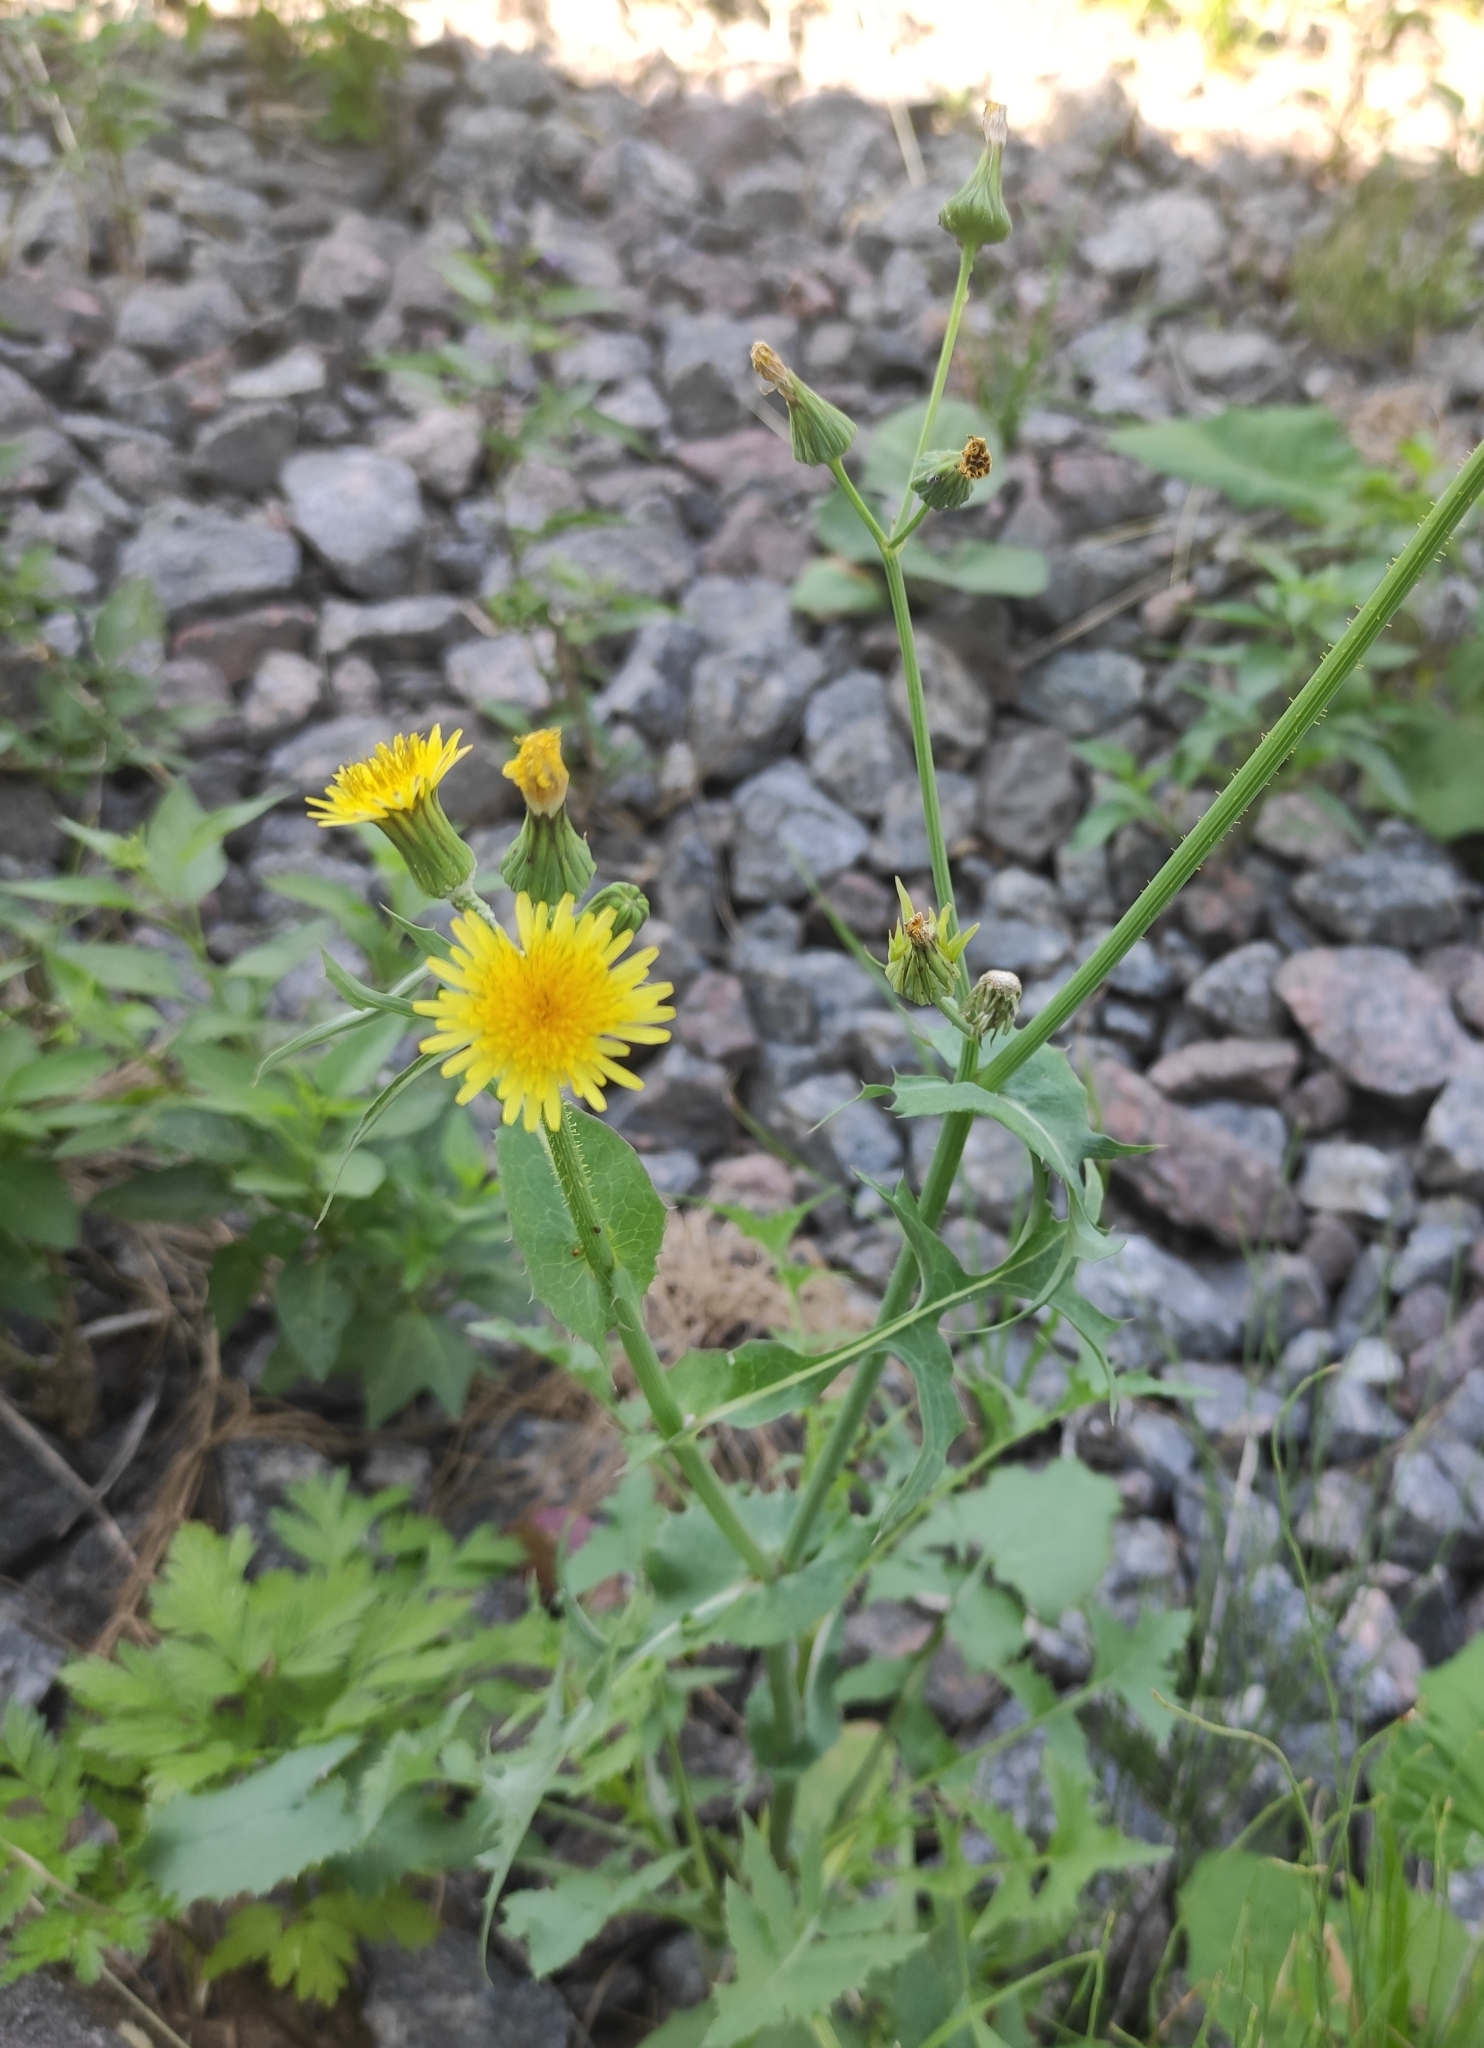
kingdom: Plantae
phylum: Tracheophyta
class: Magnoliopsida
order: Asterales
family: Asteraceae
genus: Sonchus
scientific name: Sonchus oleraceus
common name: Common sowthistle
